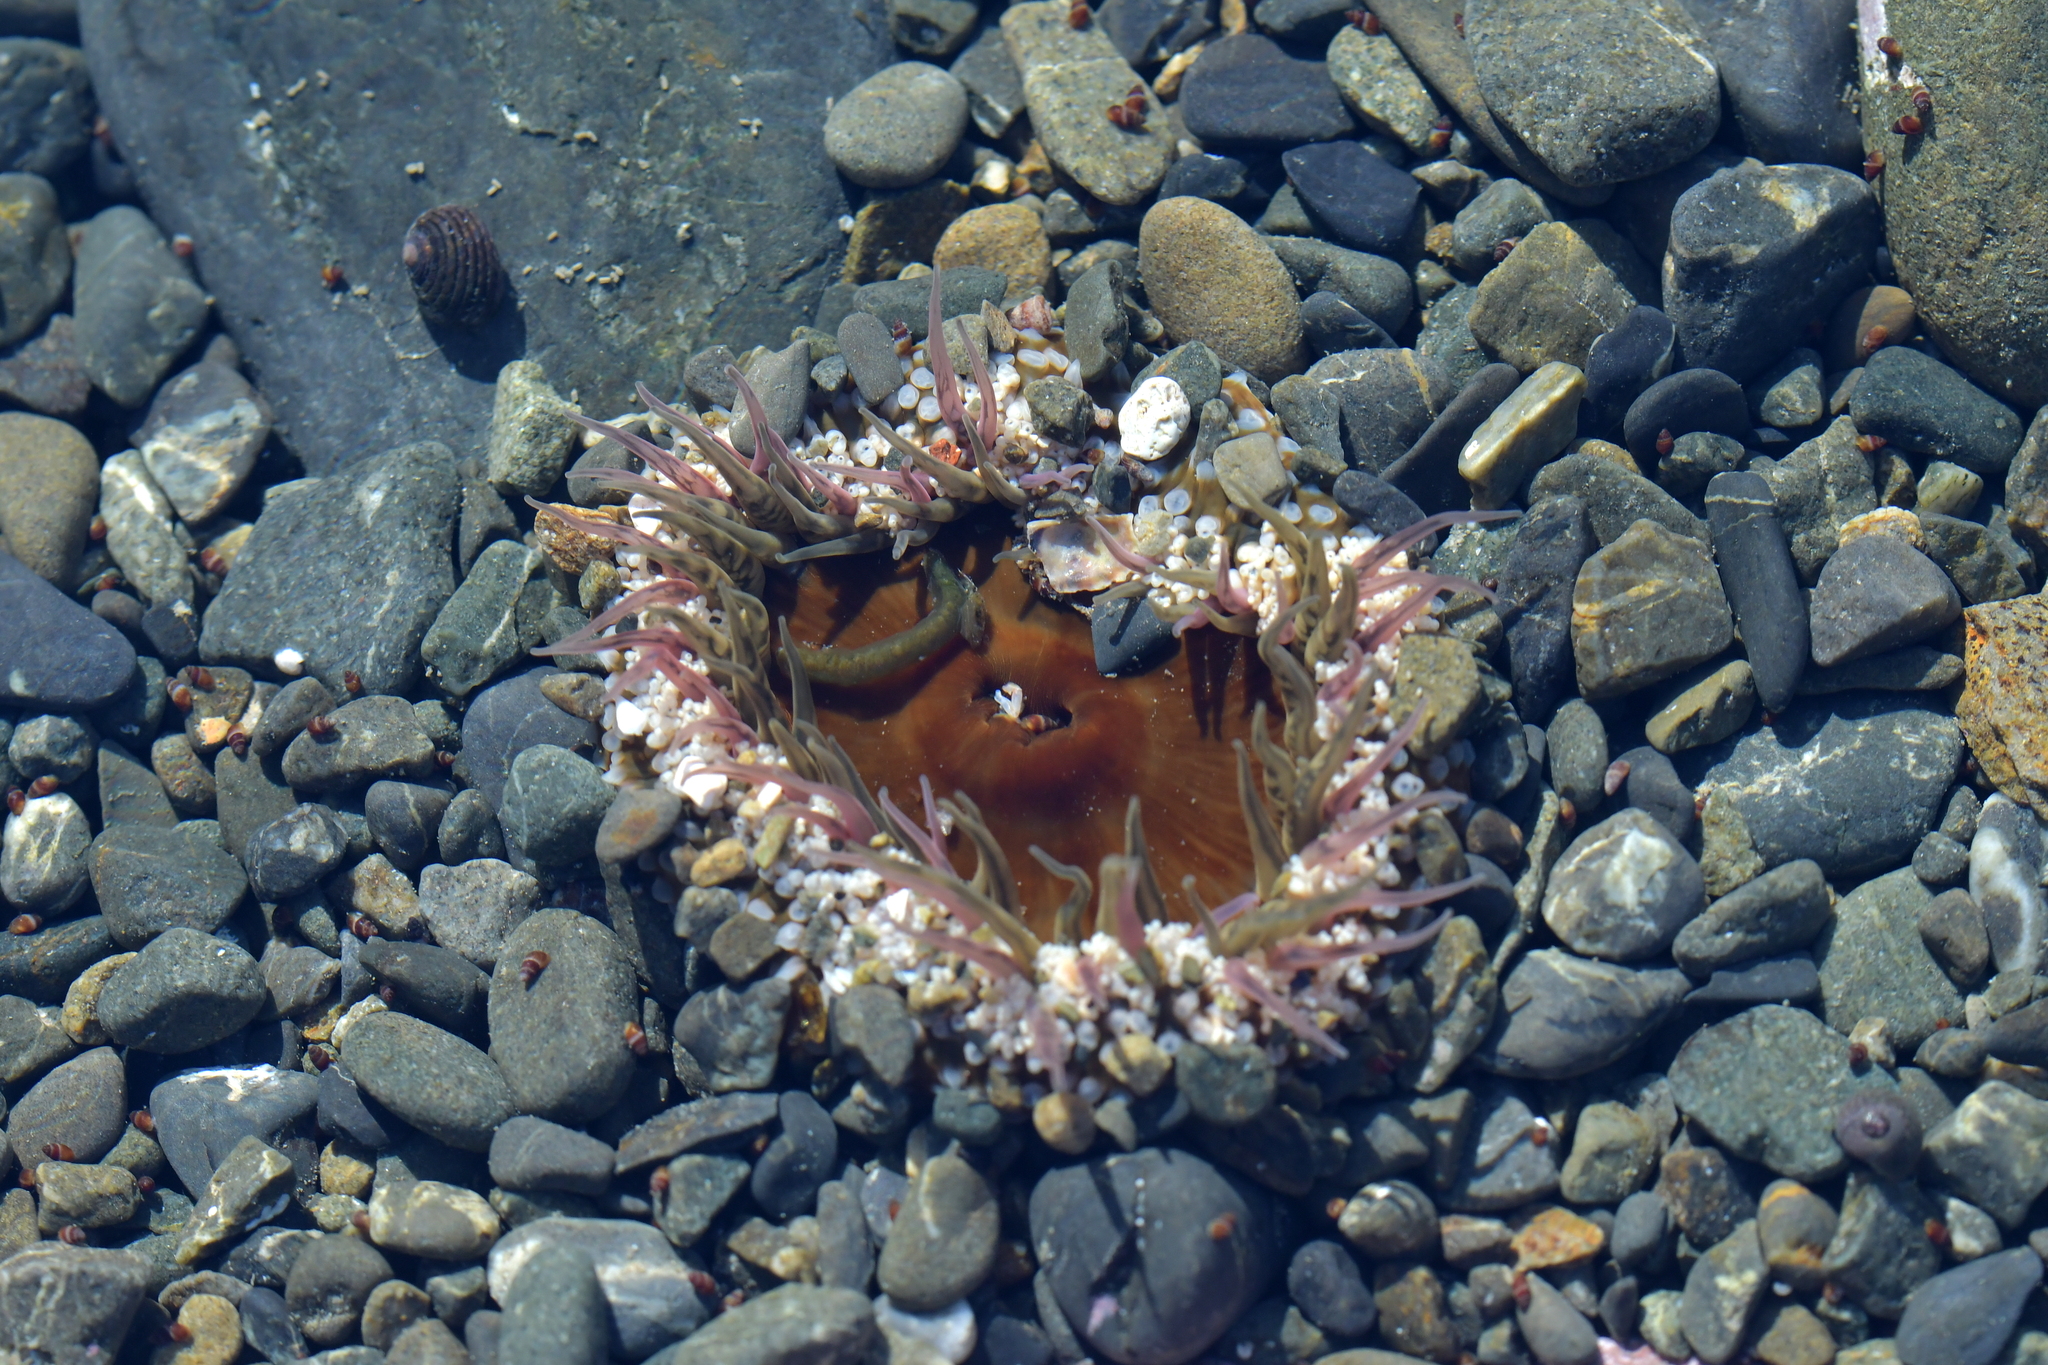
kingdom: Animalia
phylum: Cnidaria
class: Anthozoa
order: Actiniaria
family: Actiniidae
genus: Oulactis
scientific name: Oulactis muscosa
